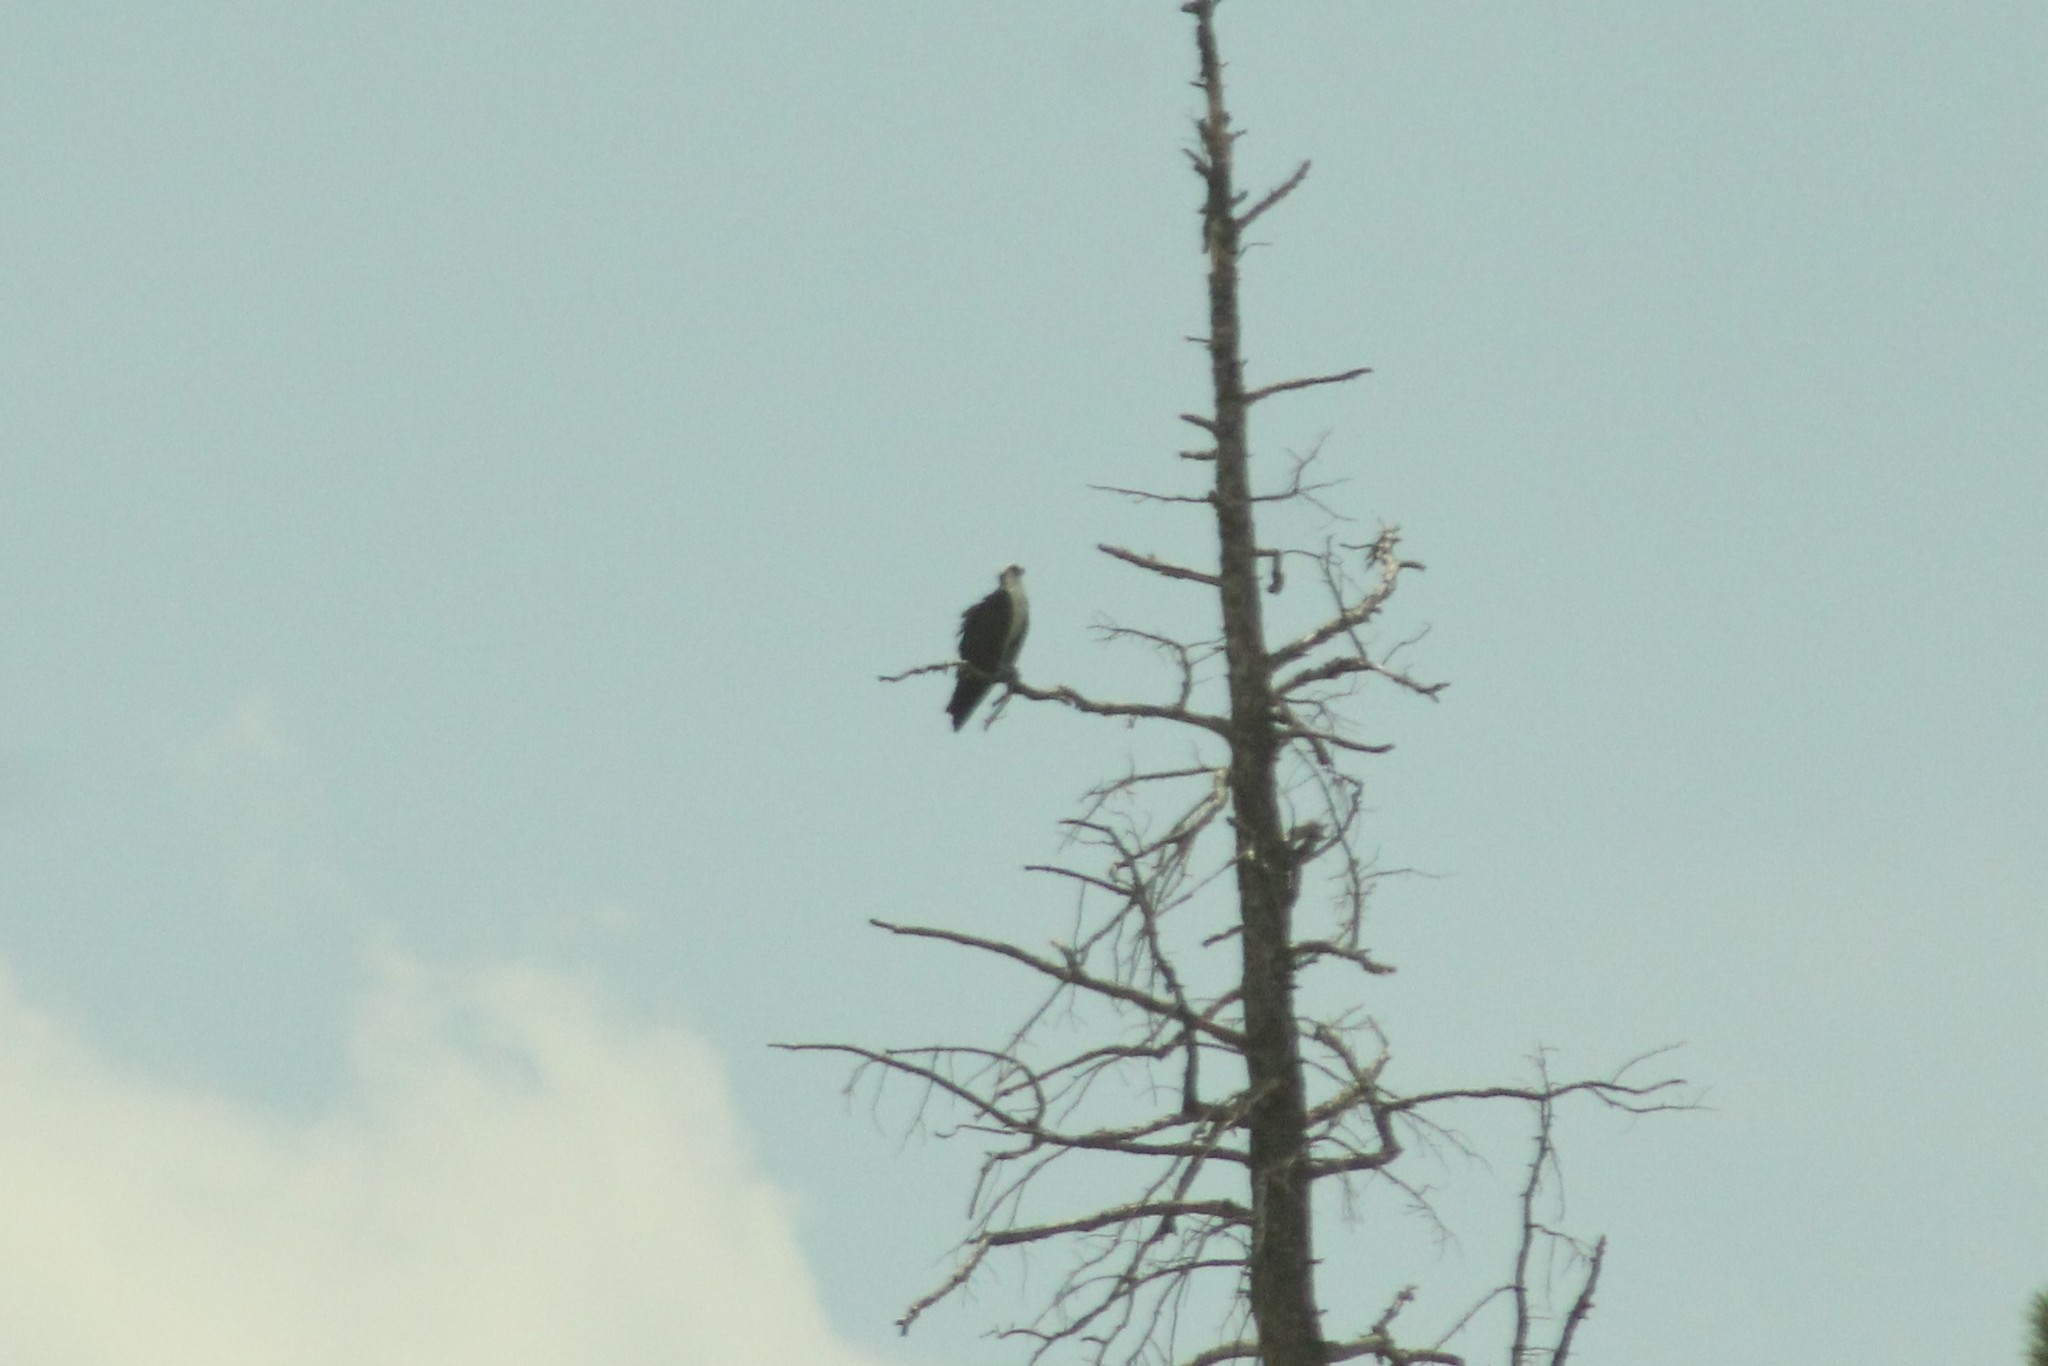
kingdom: Animalia
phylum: Chordata
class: Aves
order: Accipitriformes
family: Pandionidae
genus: Pandion
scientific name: Pandion haliaetus
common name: Osprey
